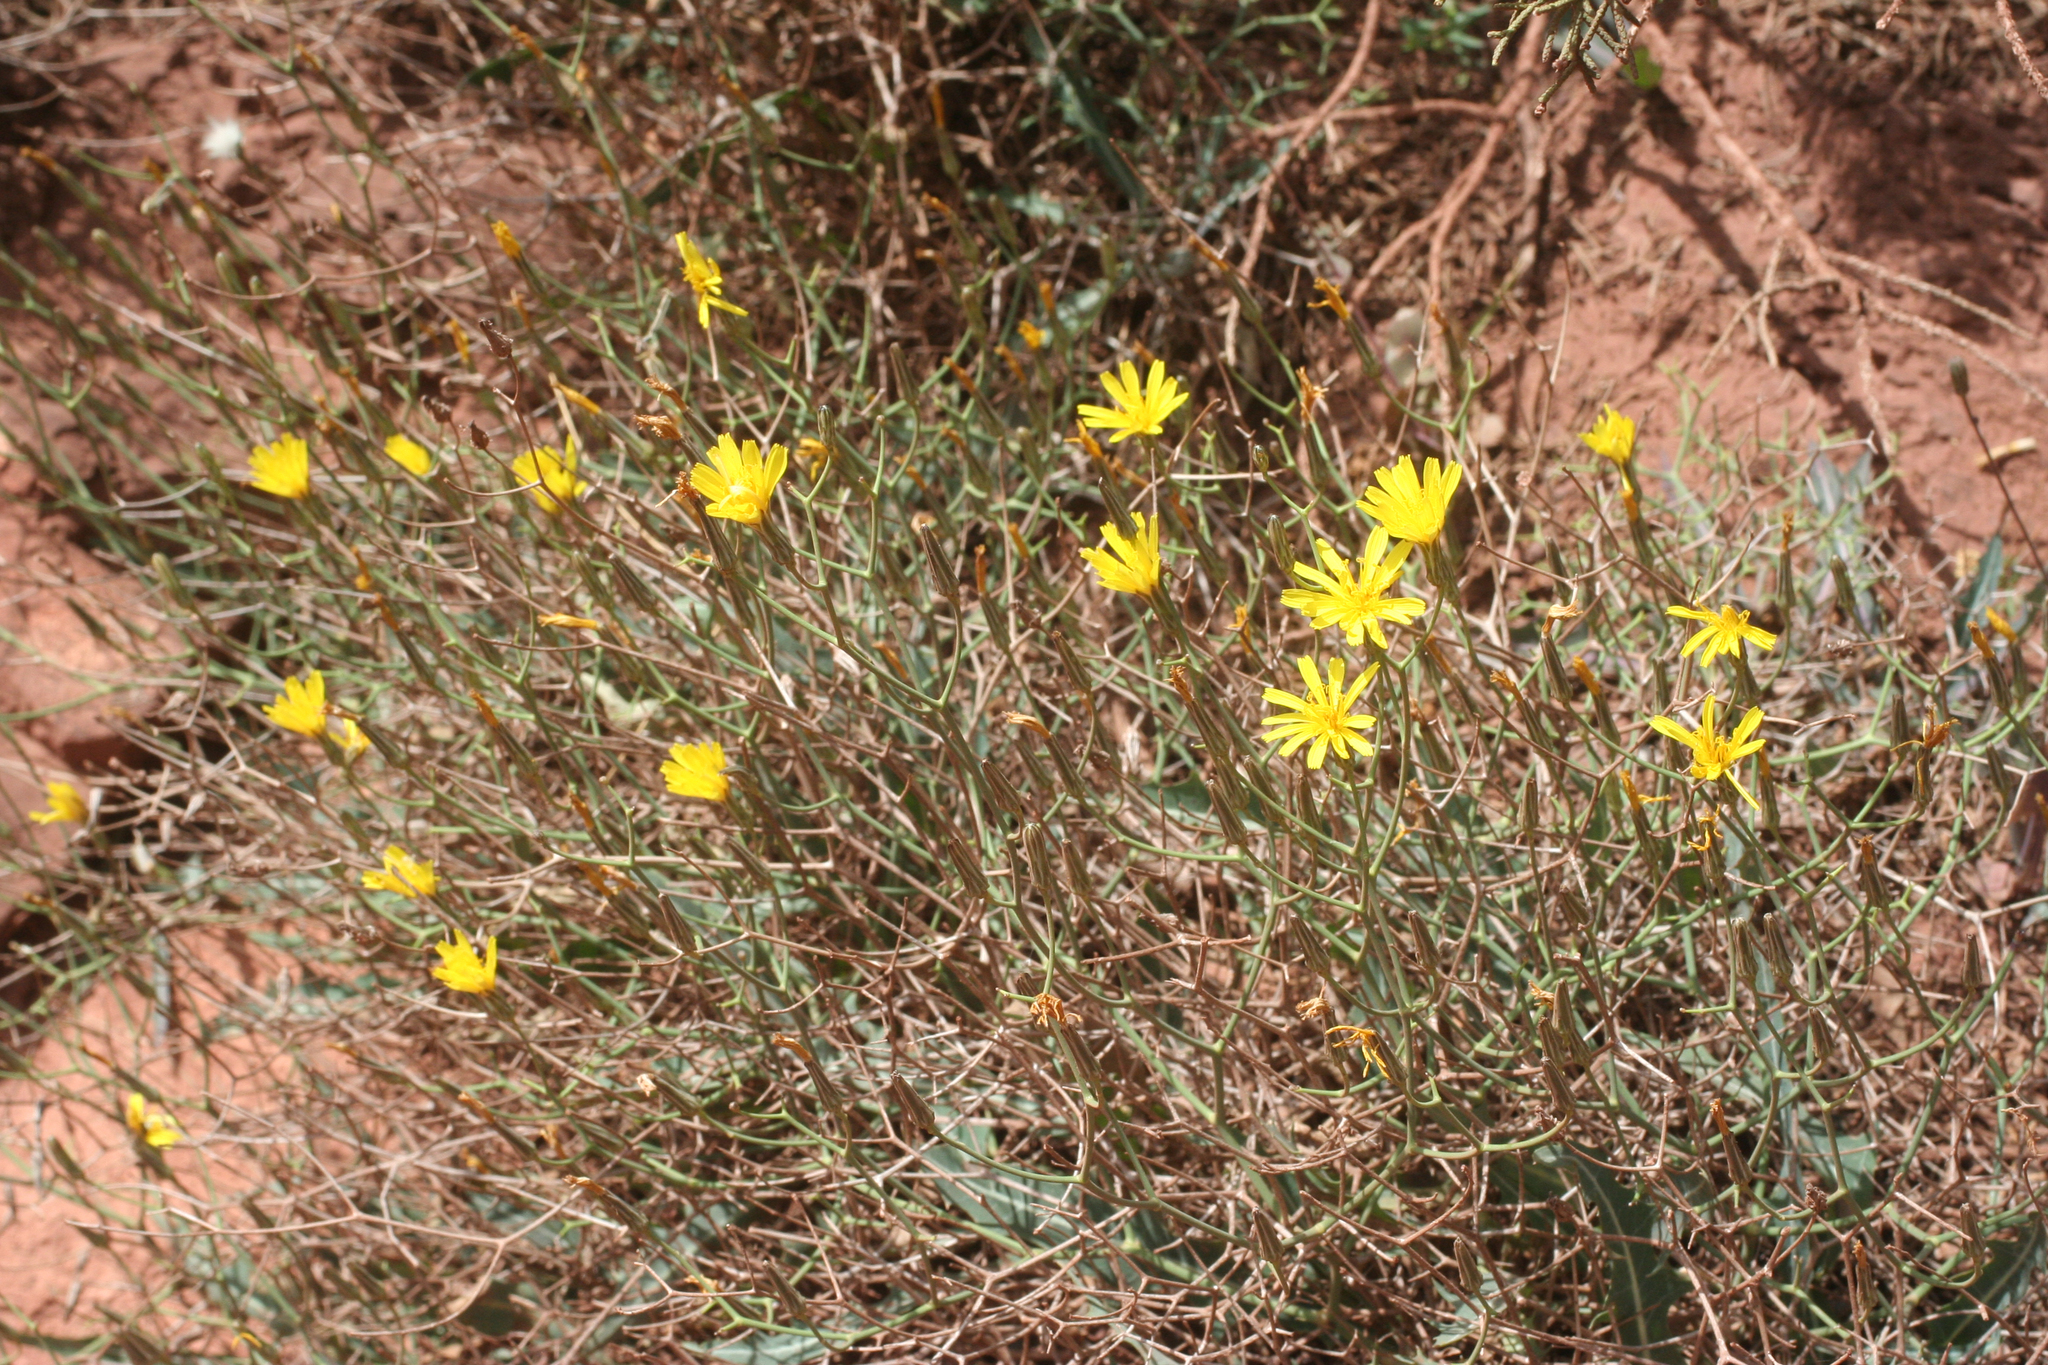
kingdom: Plantae
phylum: Tracheophyta
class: Magnoliopsida
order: Asterales
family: Asteraceae
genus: Launaea
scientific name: Launaea arborescens
